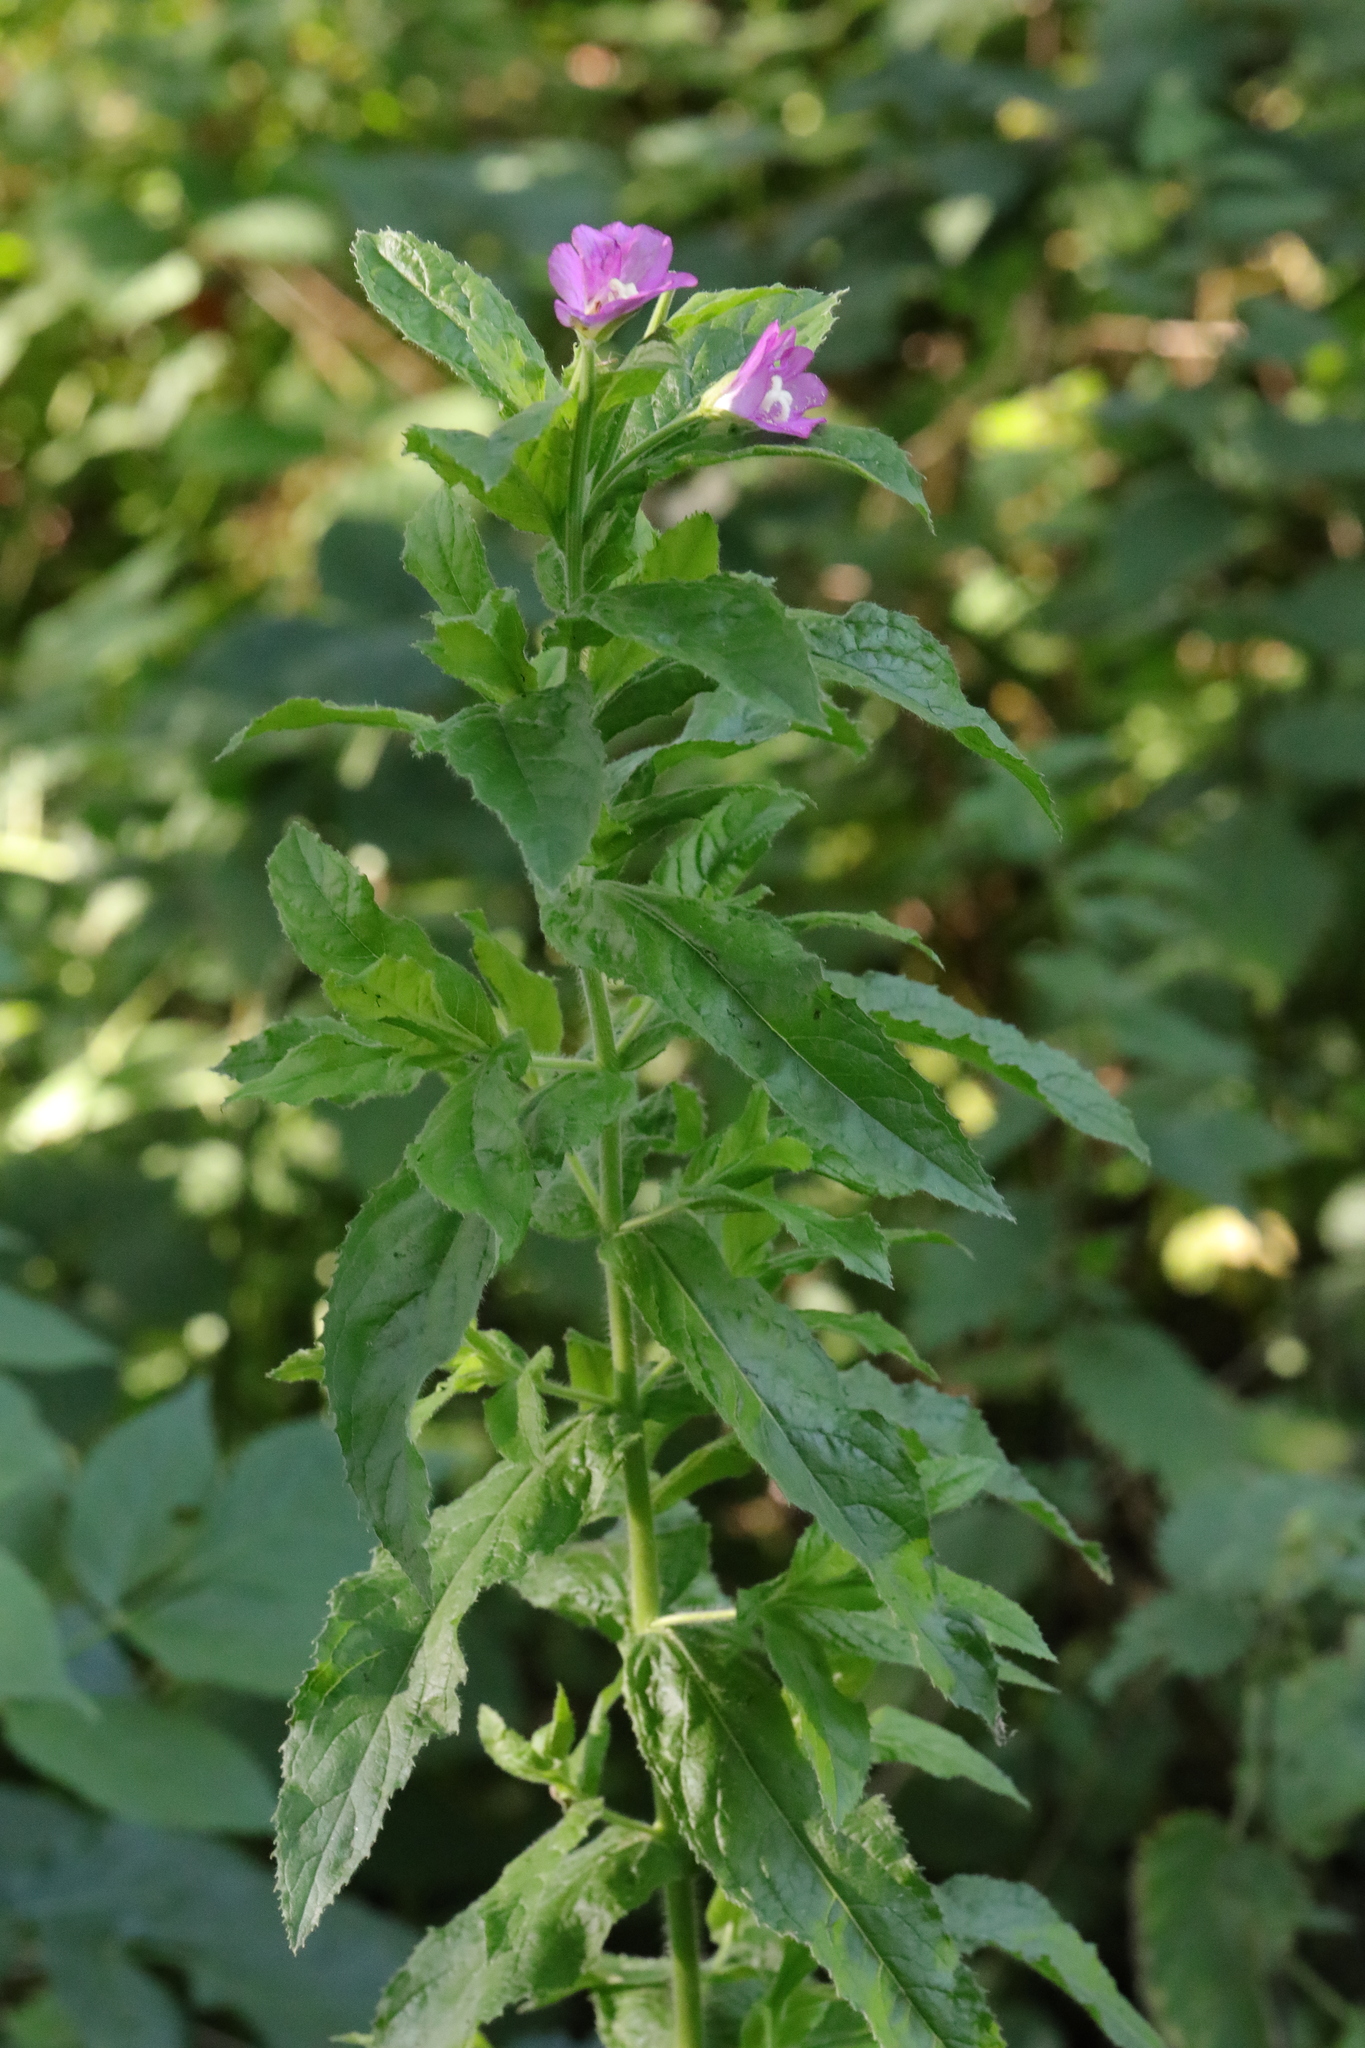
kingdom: Plantae
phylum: Tracheophyta
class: Magnoliopsida
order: Myrtales
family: Onagraceae
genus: Epilobium
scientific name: Epilobium hirsutum
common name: Great willowherb
